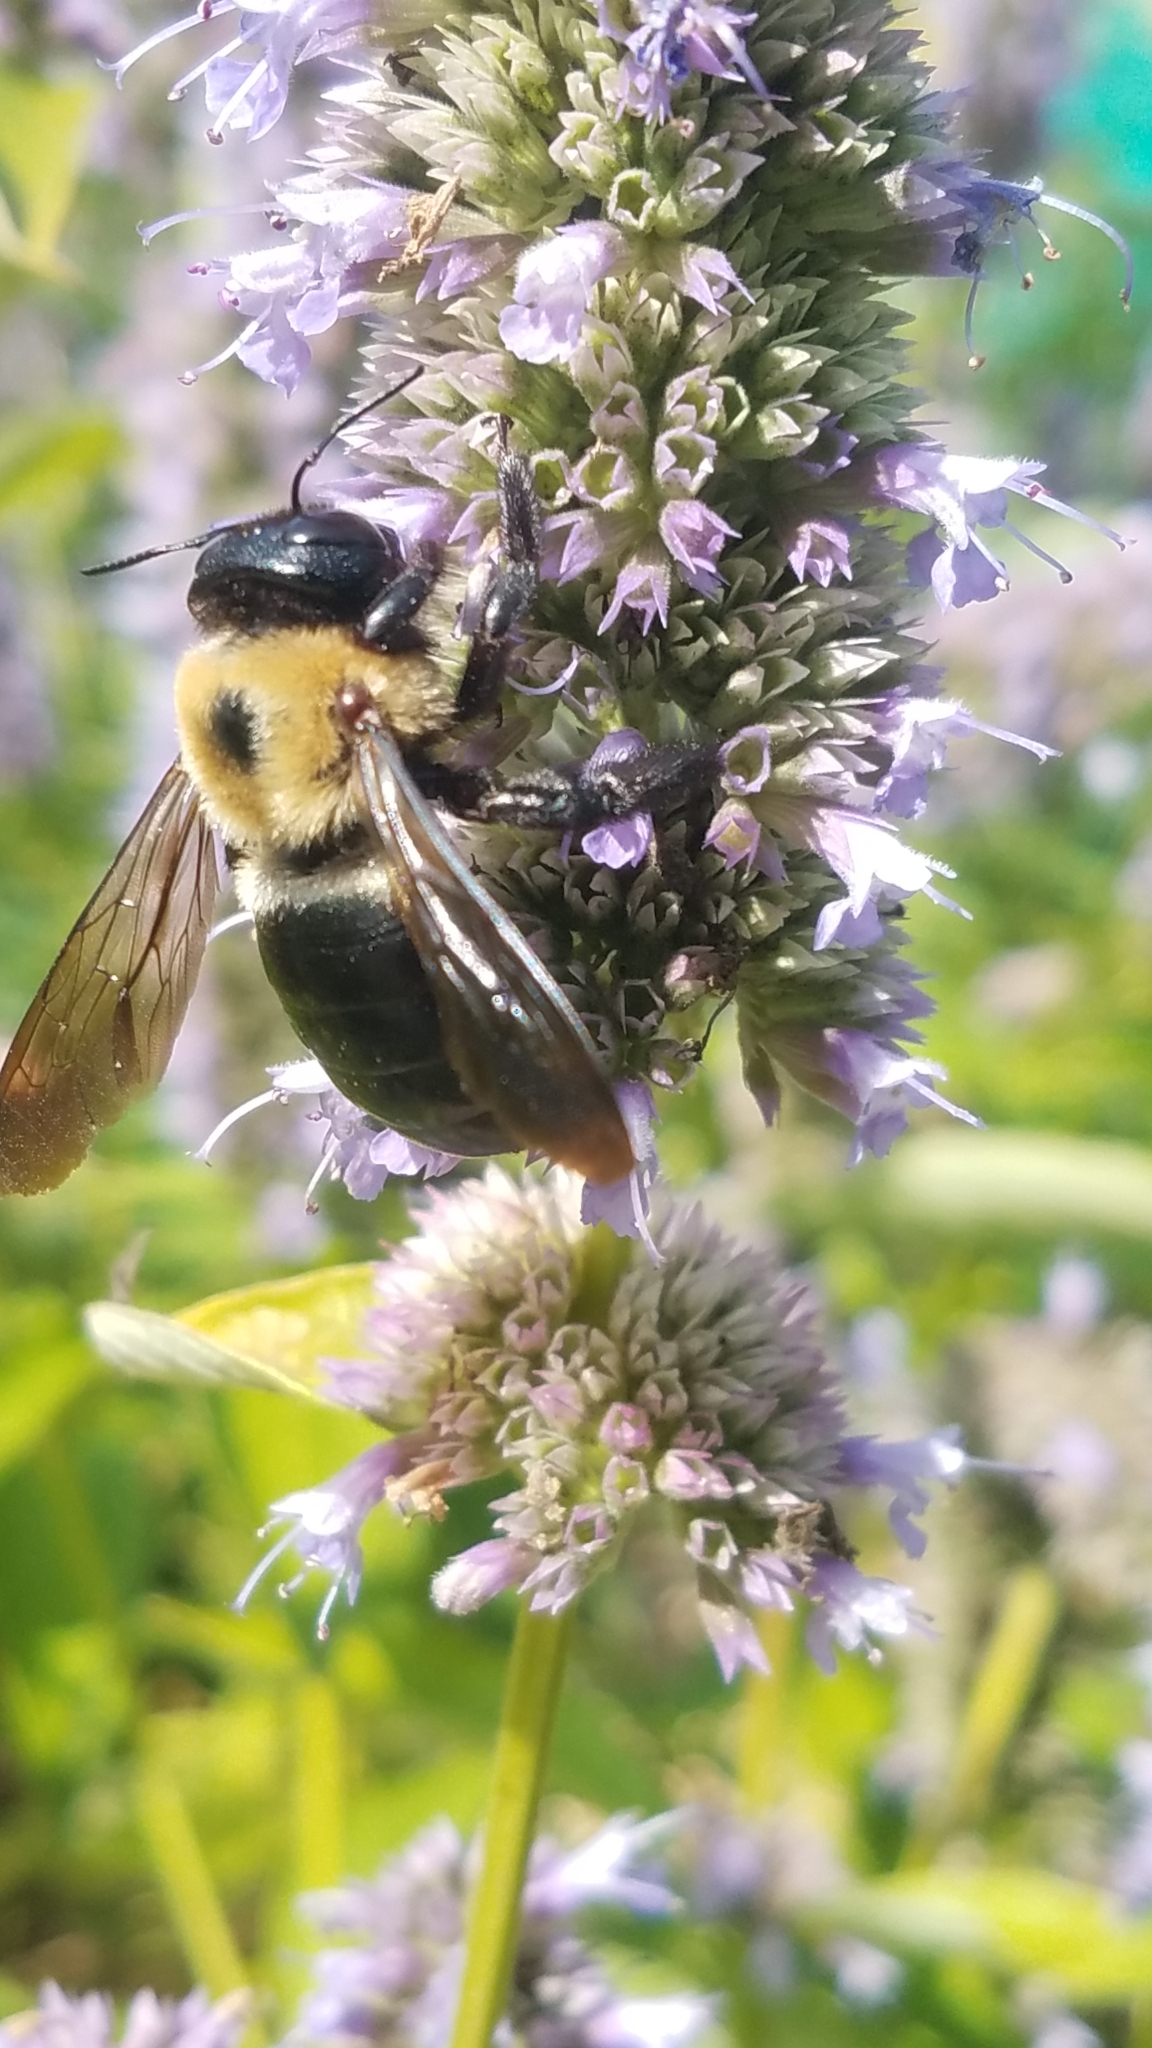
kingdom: Animalia
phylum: Arthropoda
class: Insecta
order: Hymenoptera
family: Apidae
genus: Xylocopa
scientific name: Xylocopa virginica
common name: Carpenter bee
